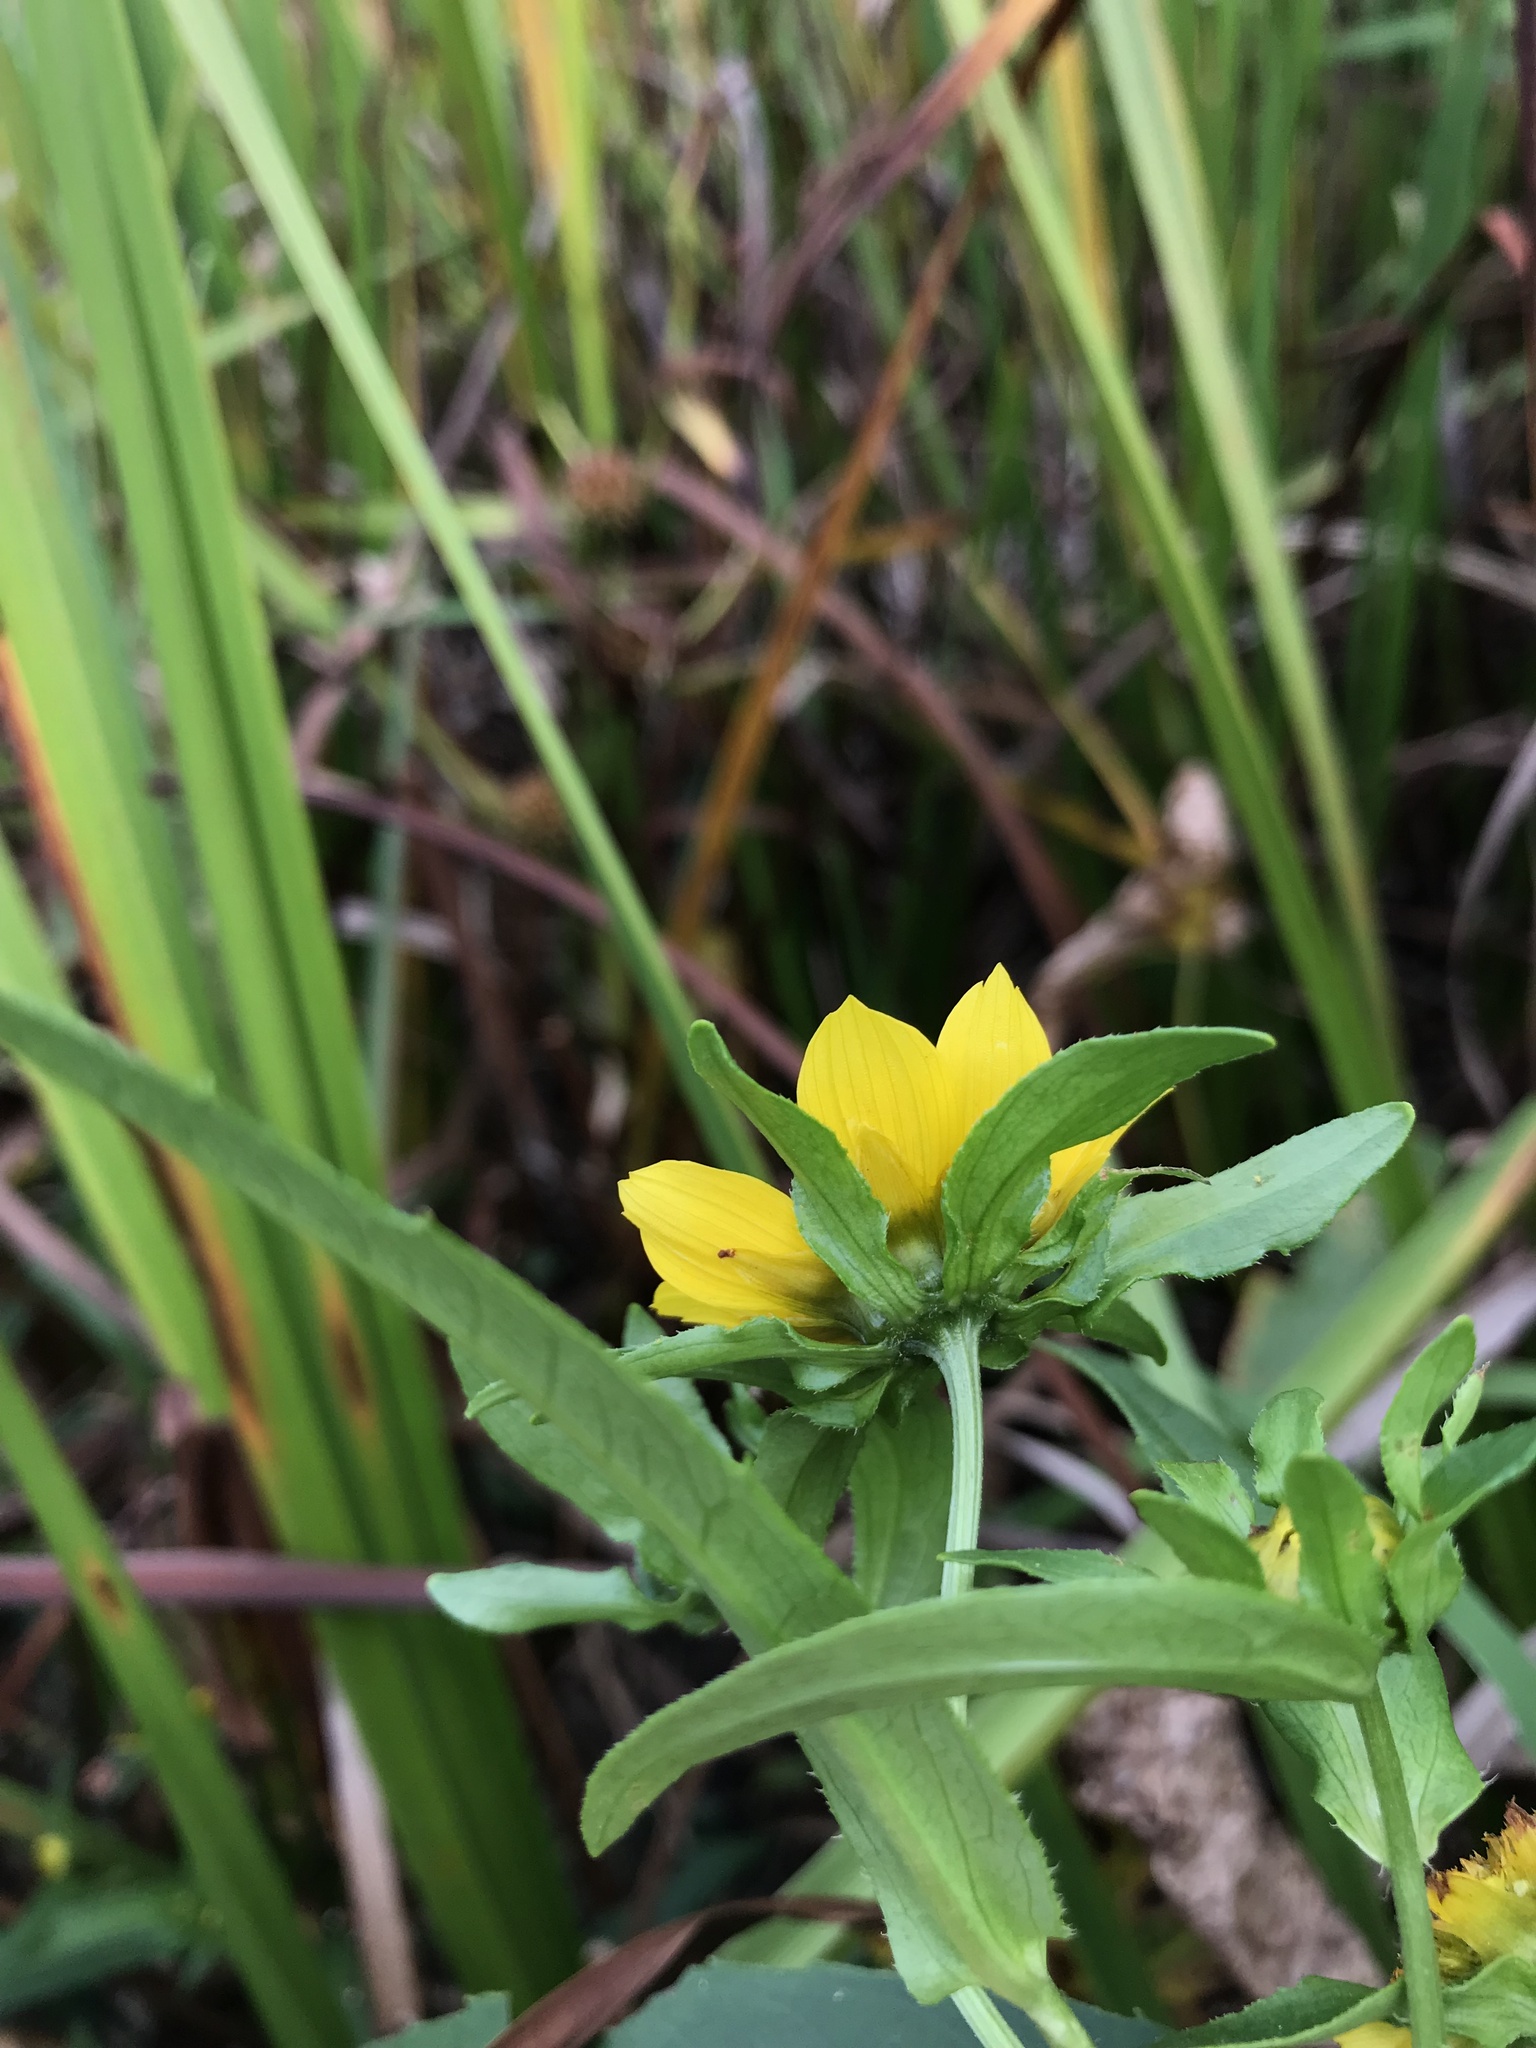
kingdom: Plantae
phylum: Tracheophyta
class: Magnoliopsida
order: Asterales
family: Asteraceae
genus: Bidens
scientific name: Bidens cernua
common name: Nodding bur-marigold
